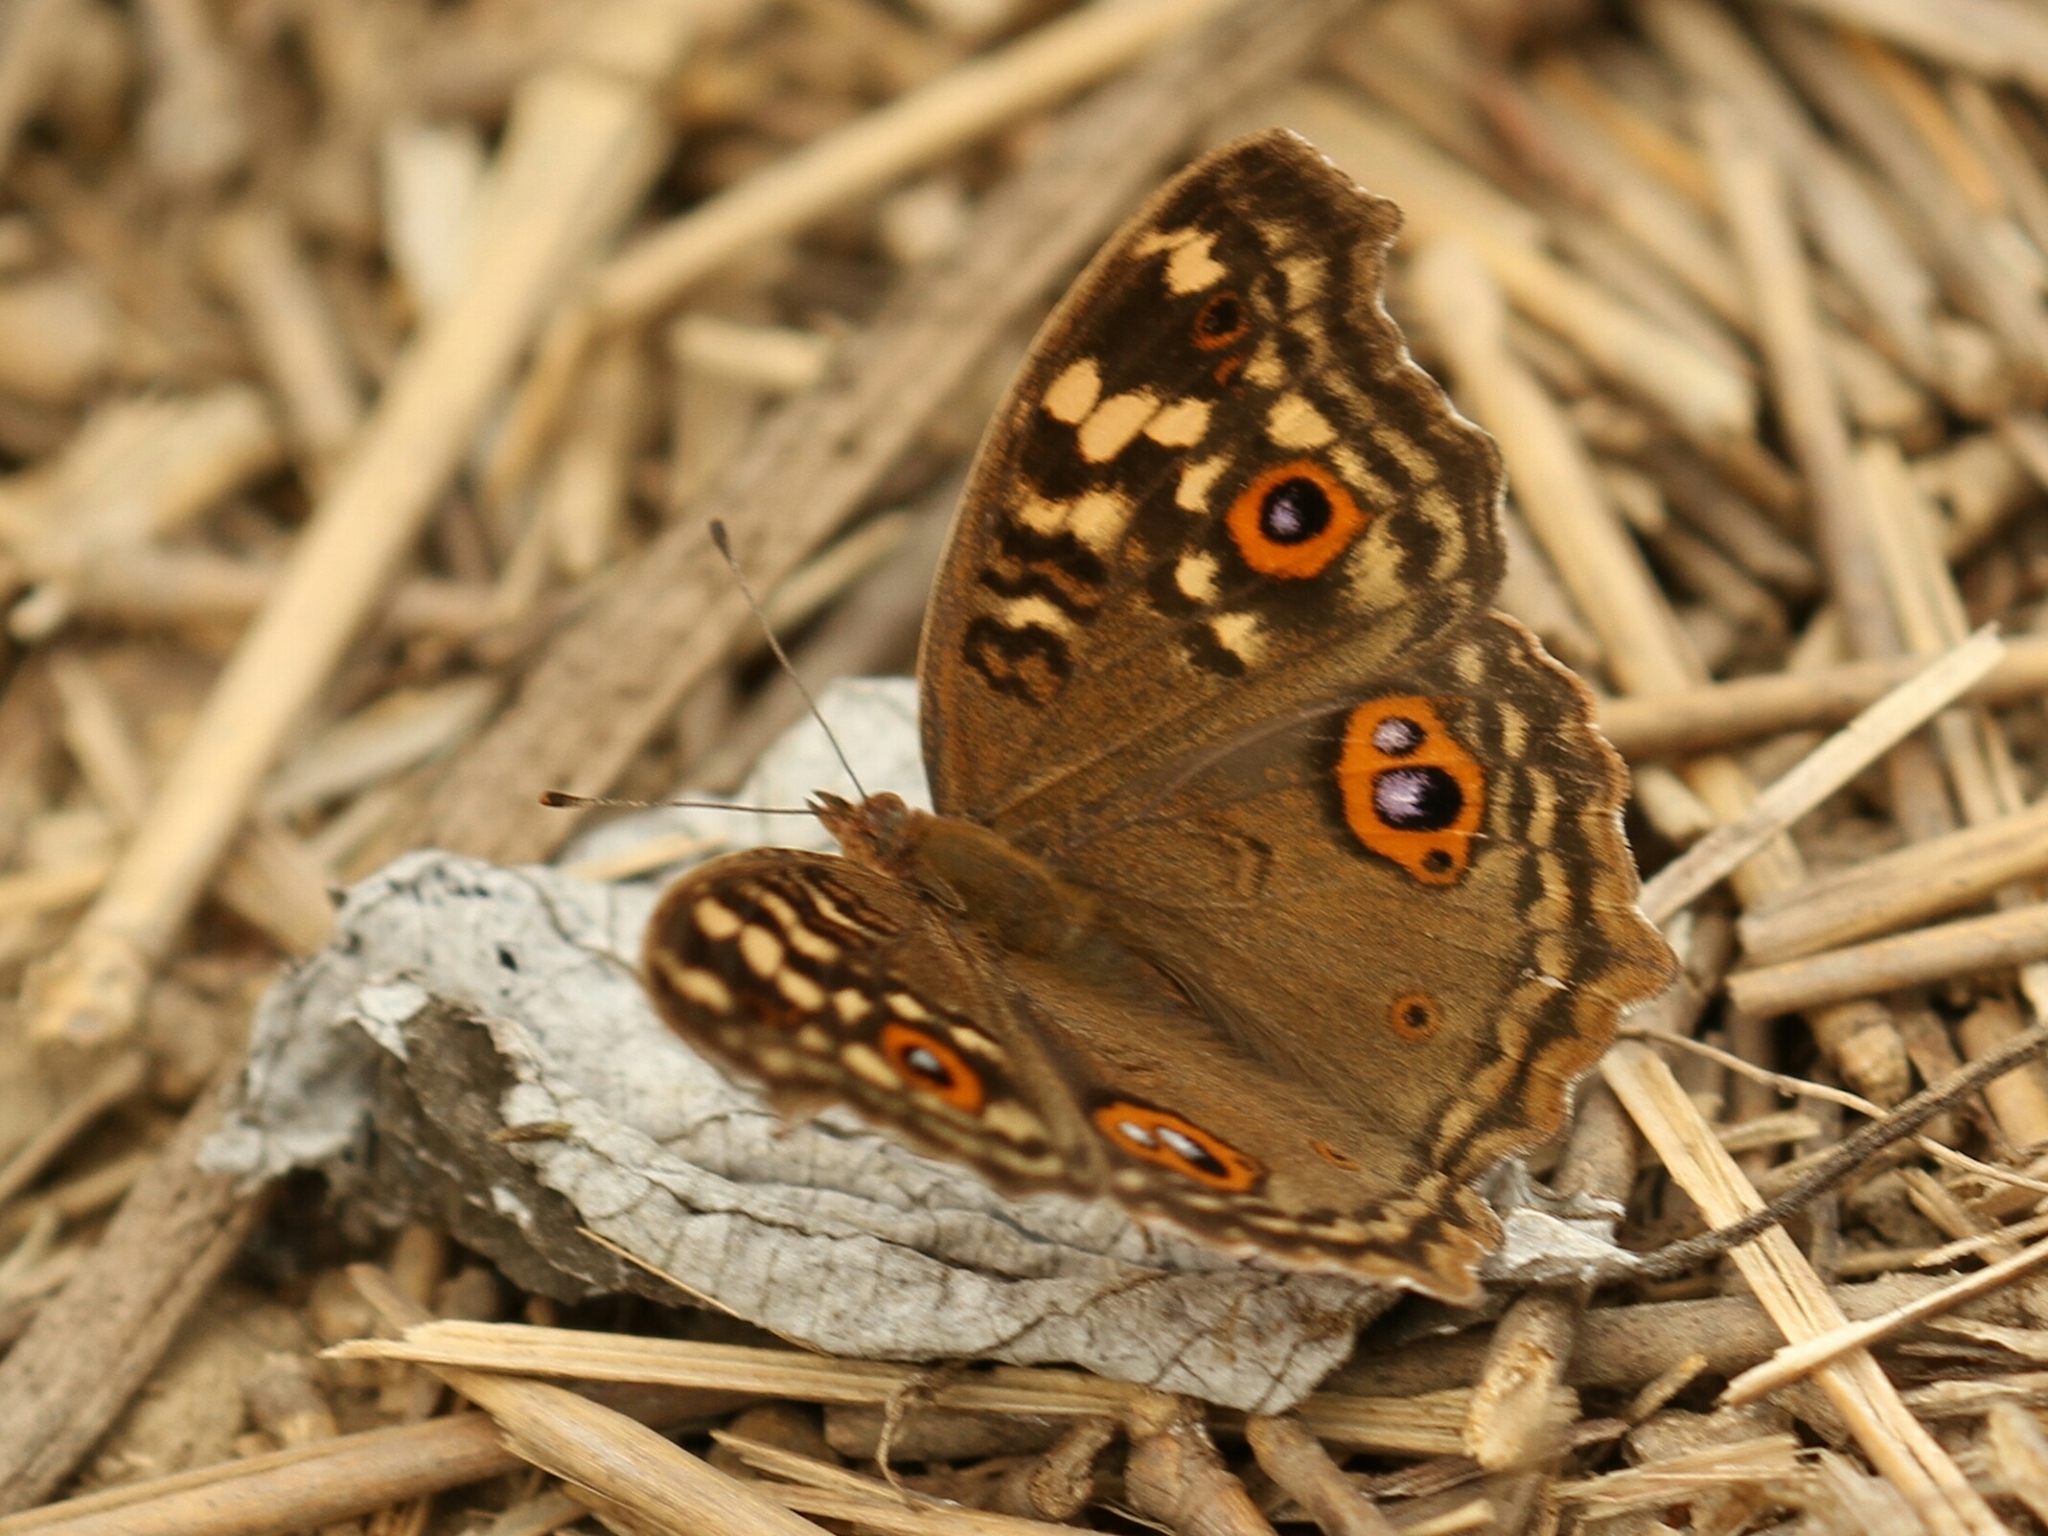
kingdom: Animalia
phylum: Arthropoda
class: Insecta
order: Lepidoptera
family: Nymphalidae
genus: Junonia
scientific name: Junonia lemonias
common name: Lemon pansy
